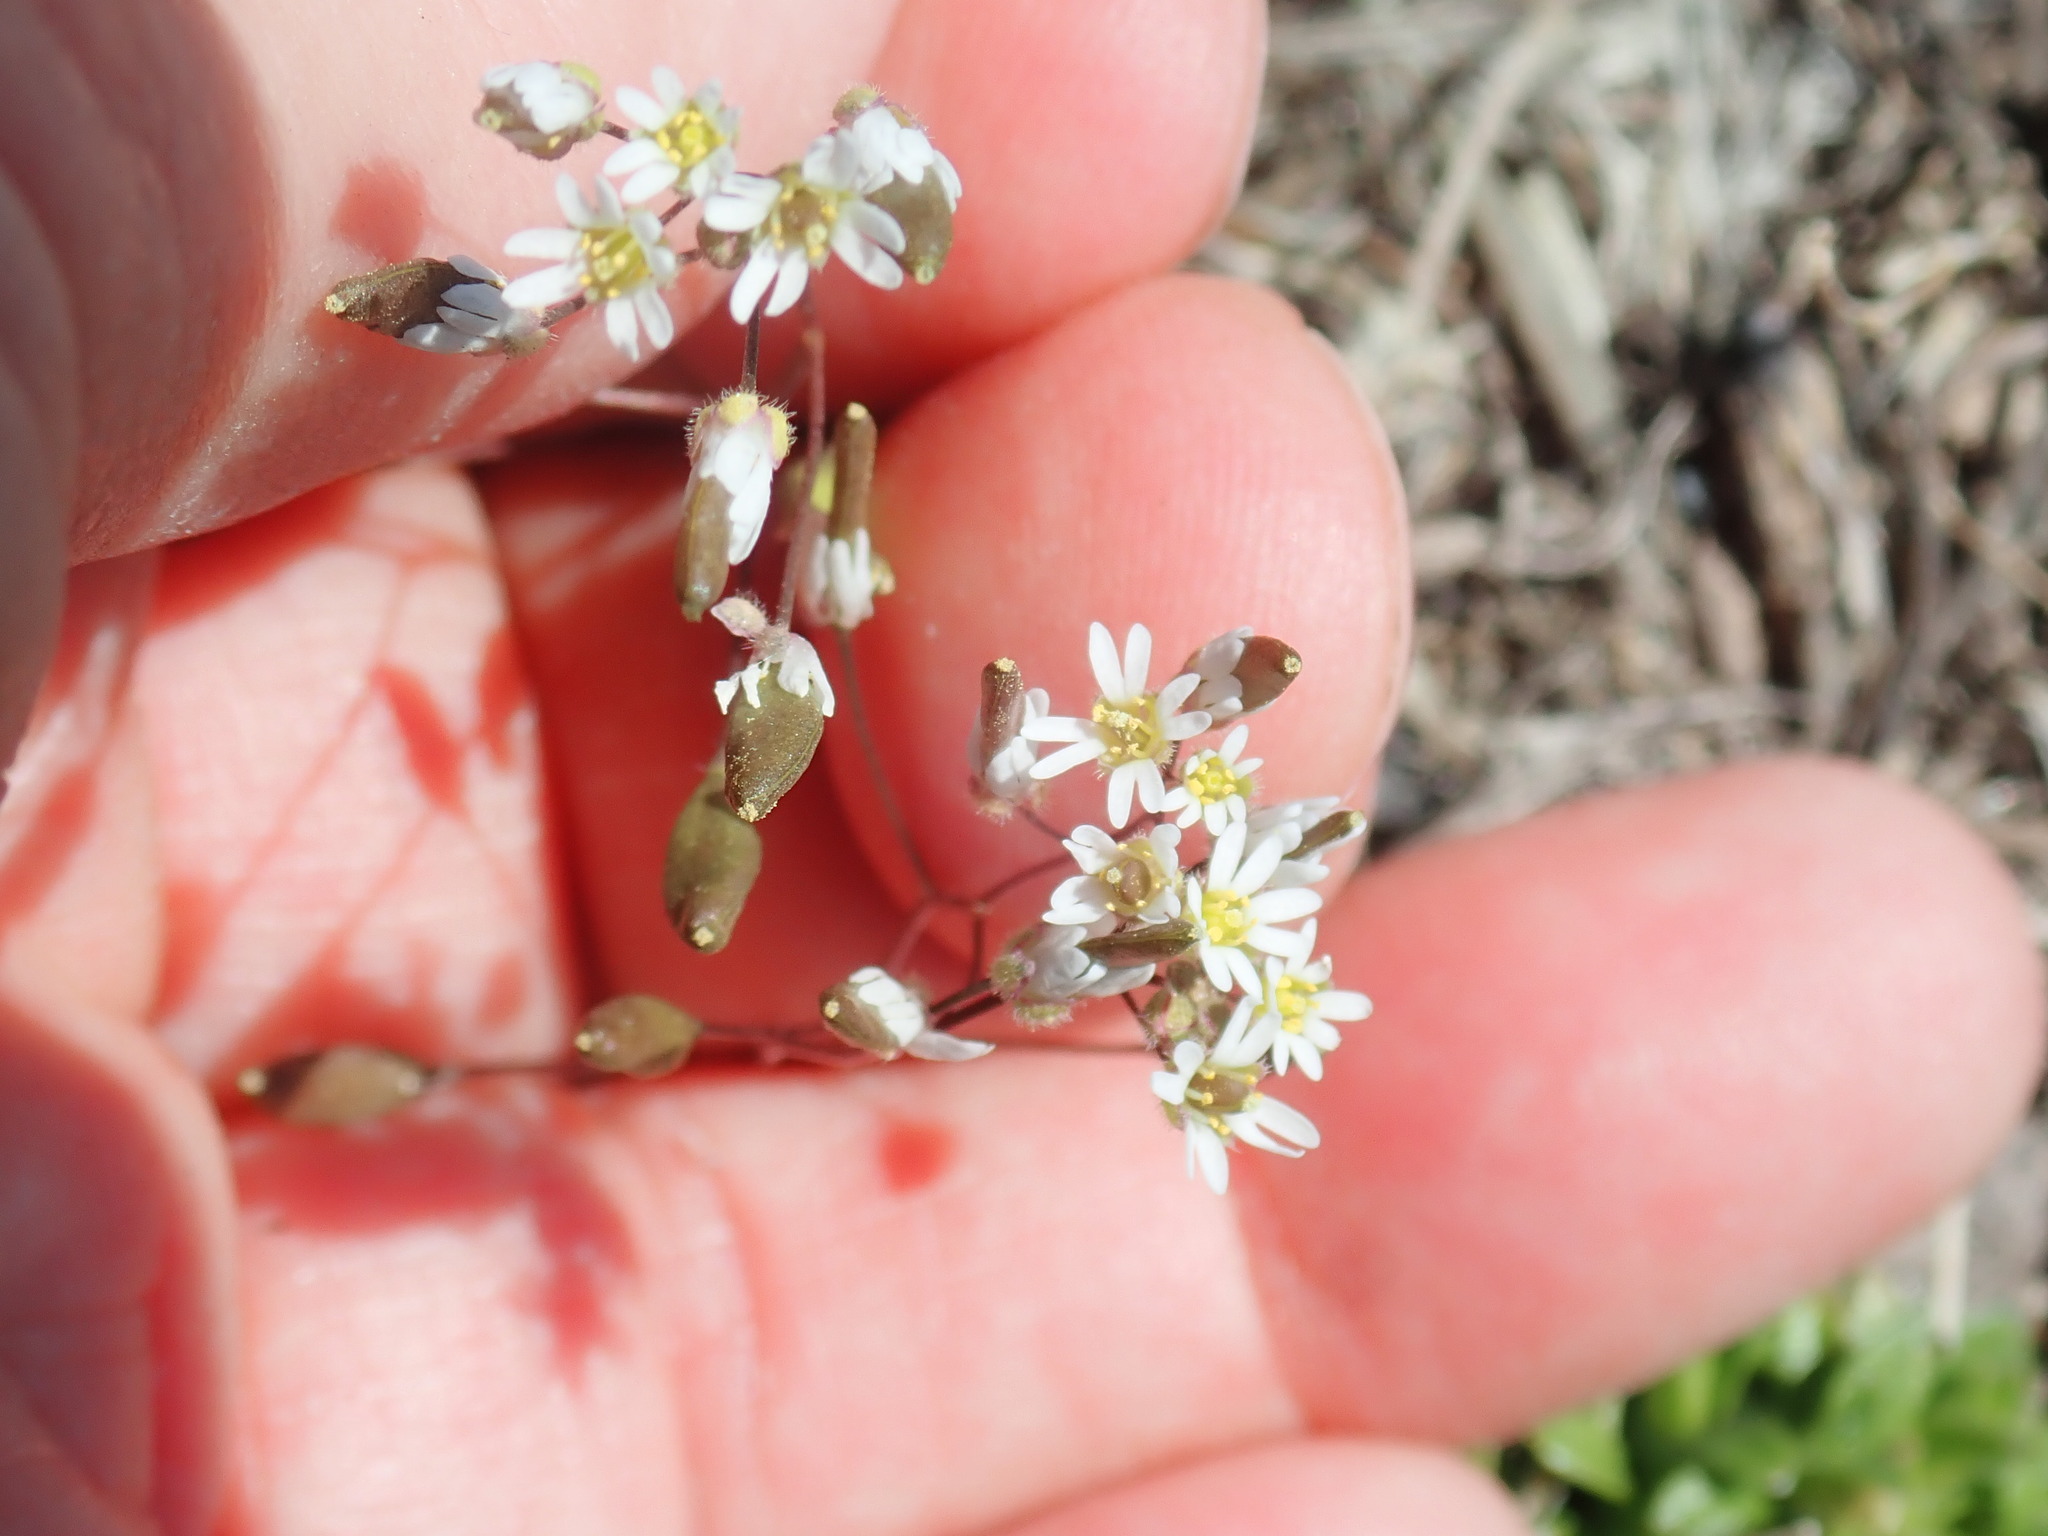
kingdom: Plantae
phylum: Tracheophyta
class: Magnoliopsida
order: Brassicales
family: Brassicaceae
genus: Draba
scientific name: Draba verna
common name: Spring draba
